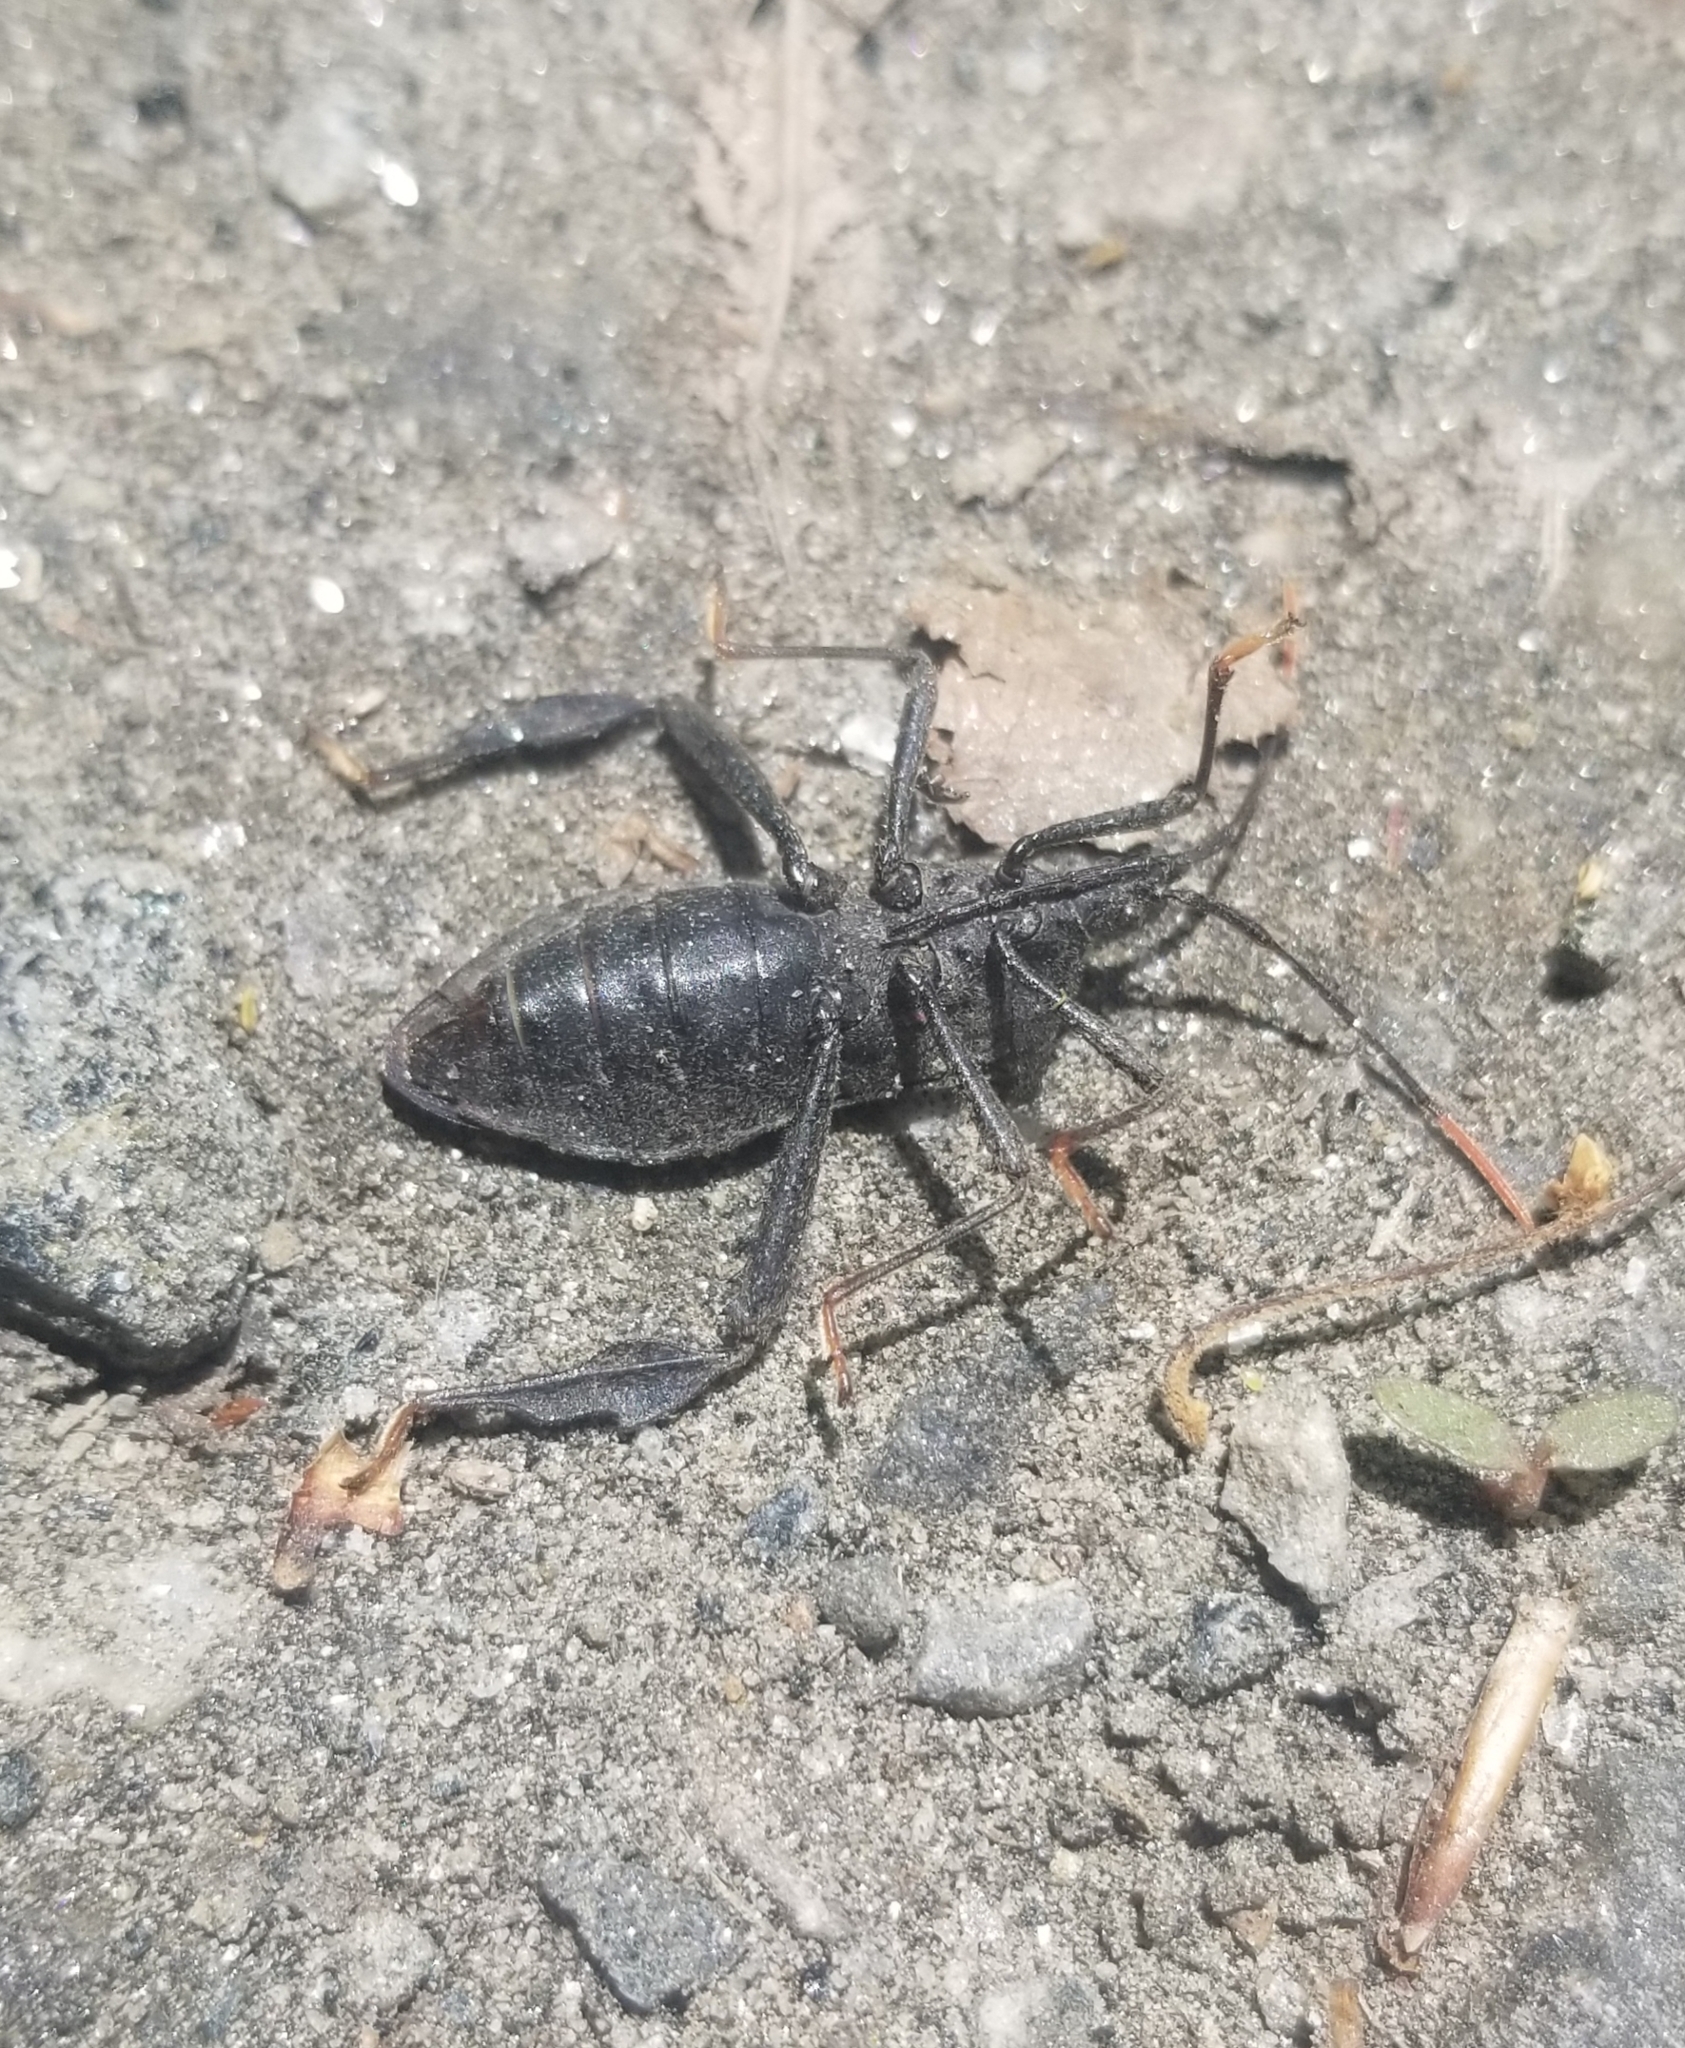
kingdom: Animalia
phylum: Arthropoda
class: Insecta
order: Hemiptera
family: Coreidae
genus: Acanthocephala
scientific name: Acanthocephala terminalis
